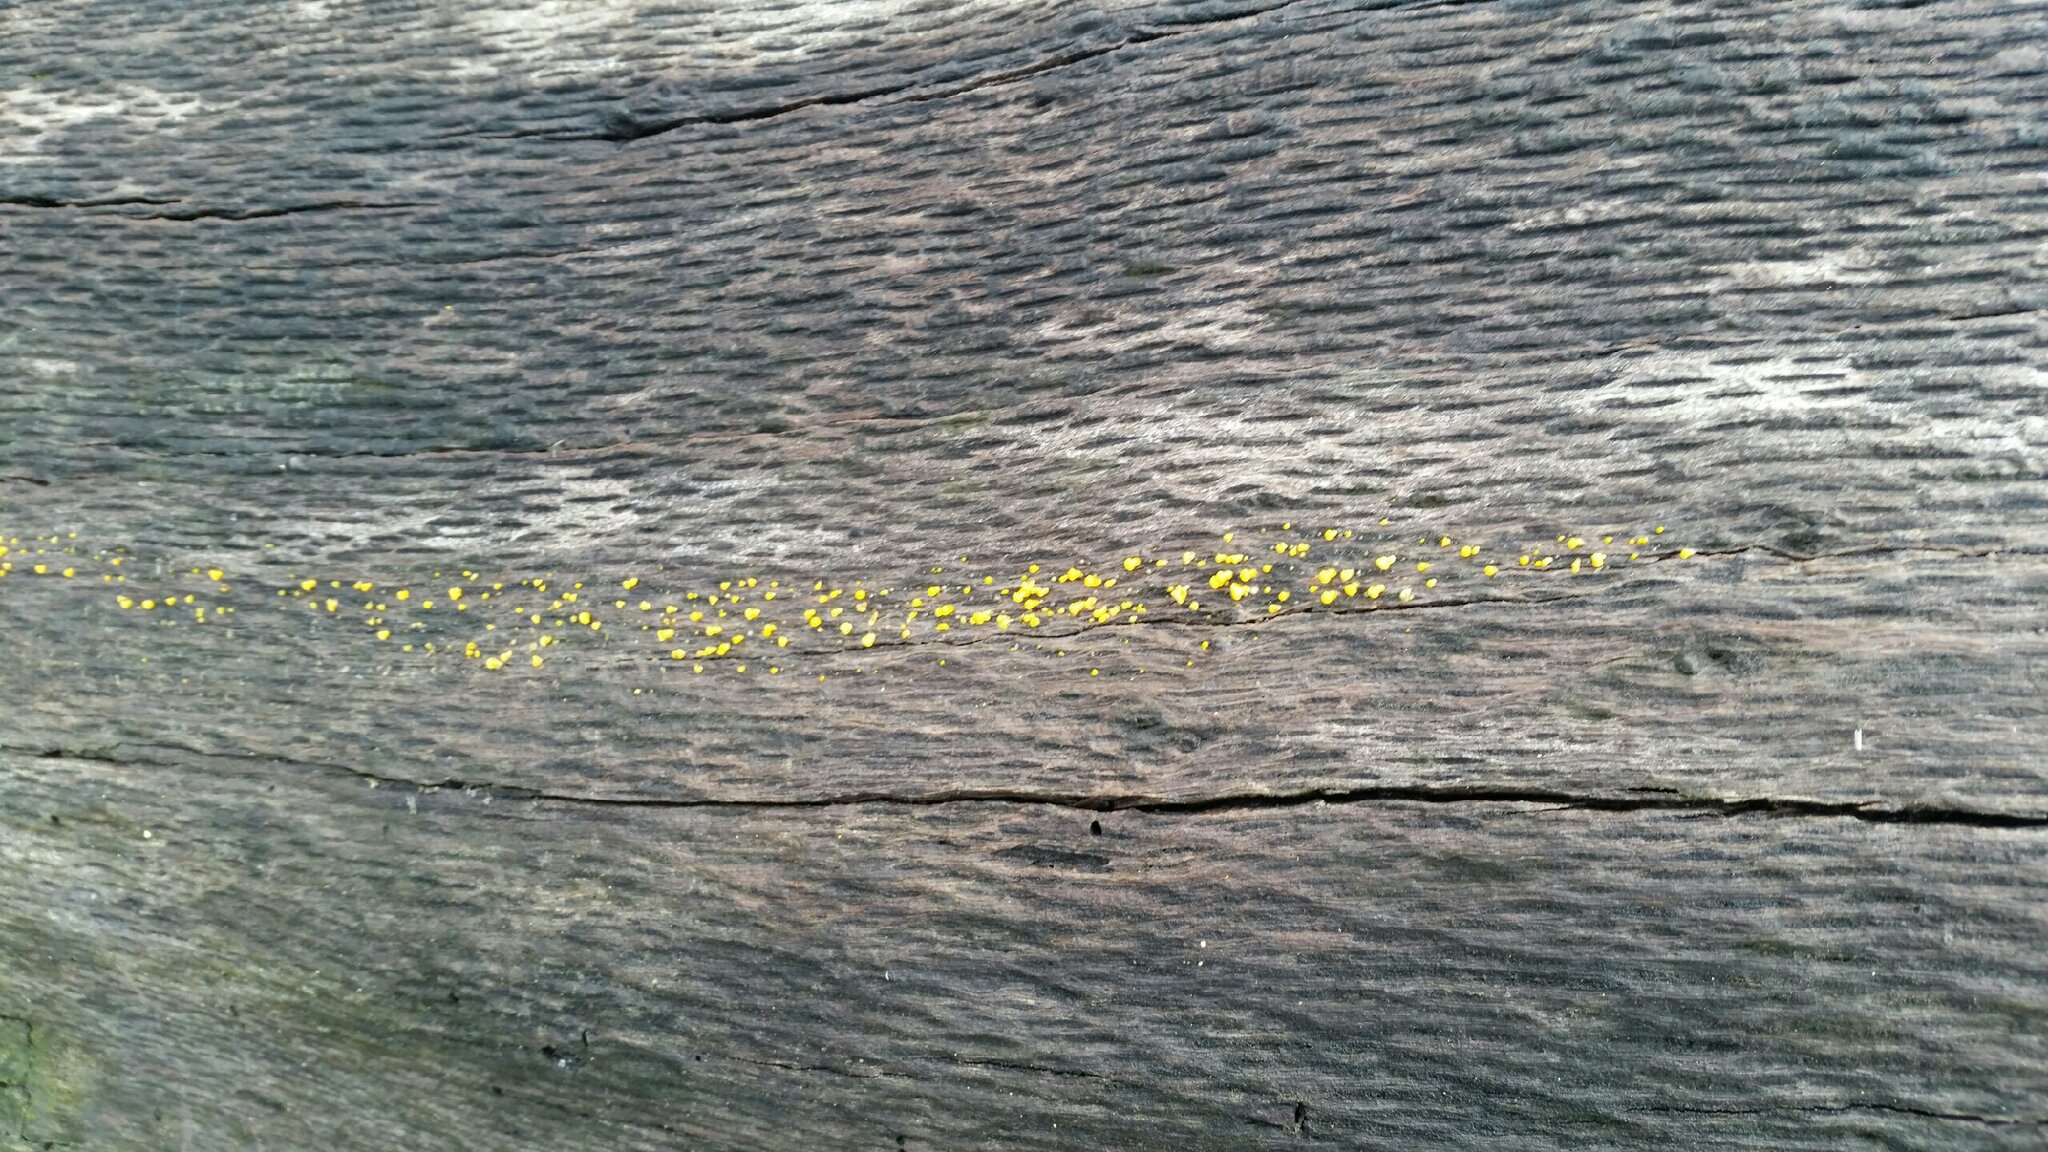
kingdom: Fungi
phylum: Basidiomycota
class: Dacrymycetes
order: Dacrymycetales
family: Dacrymycetaceae
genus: Dacrymyces
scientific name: Dacrymyces stillatus
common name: Common jelly spot
